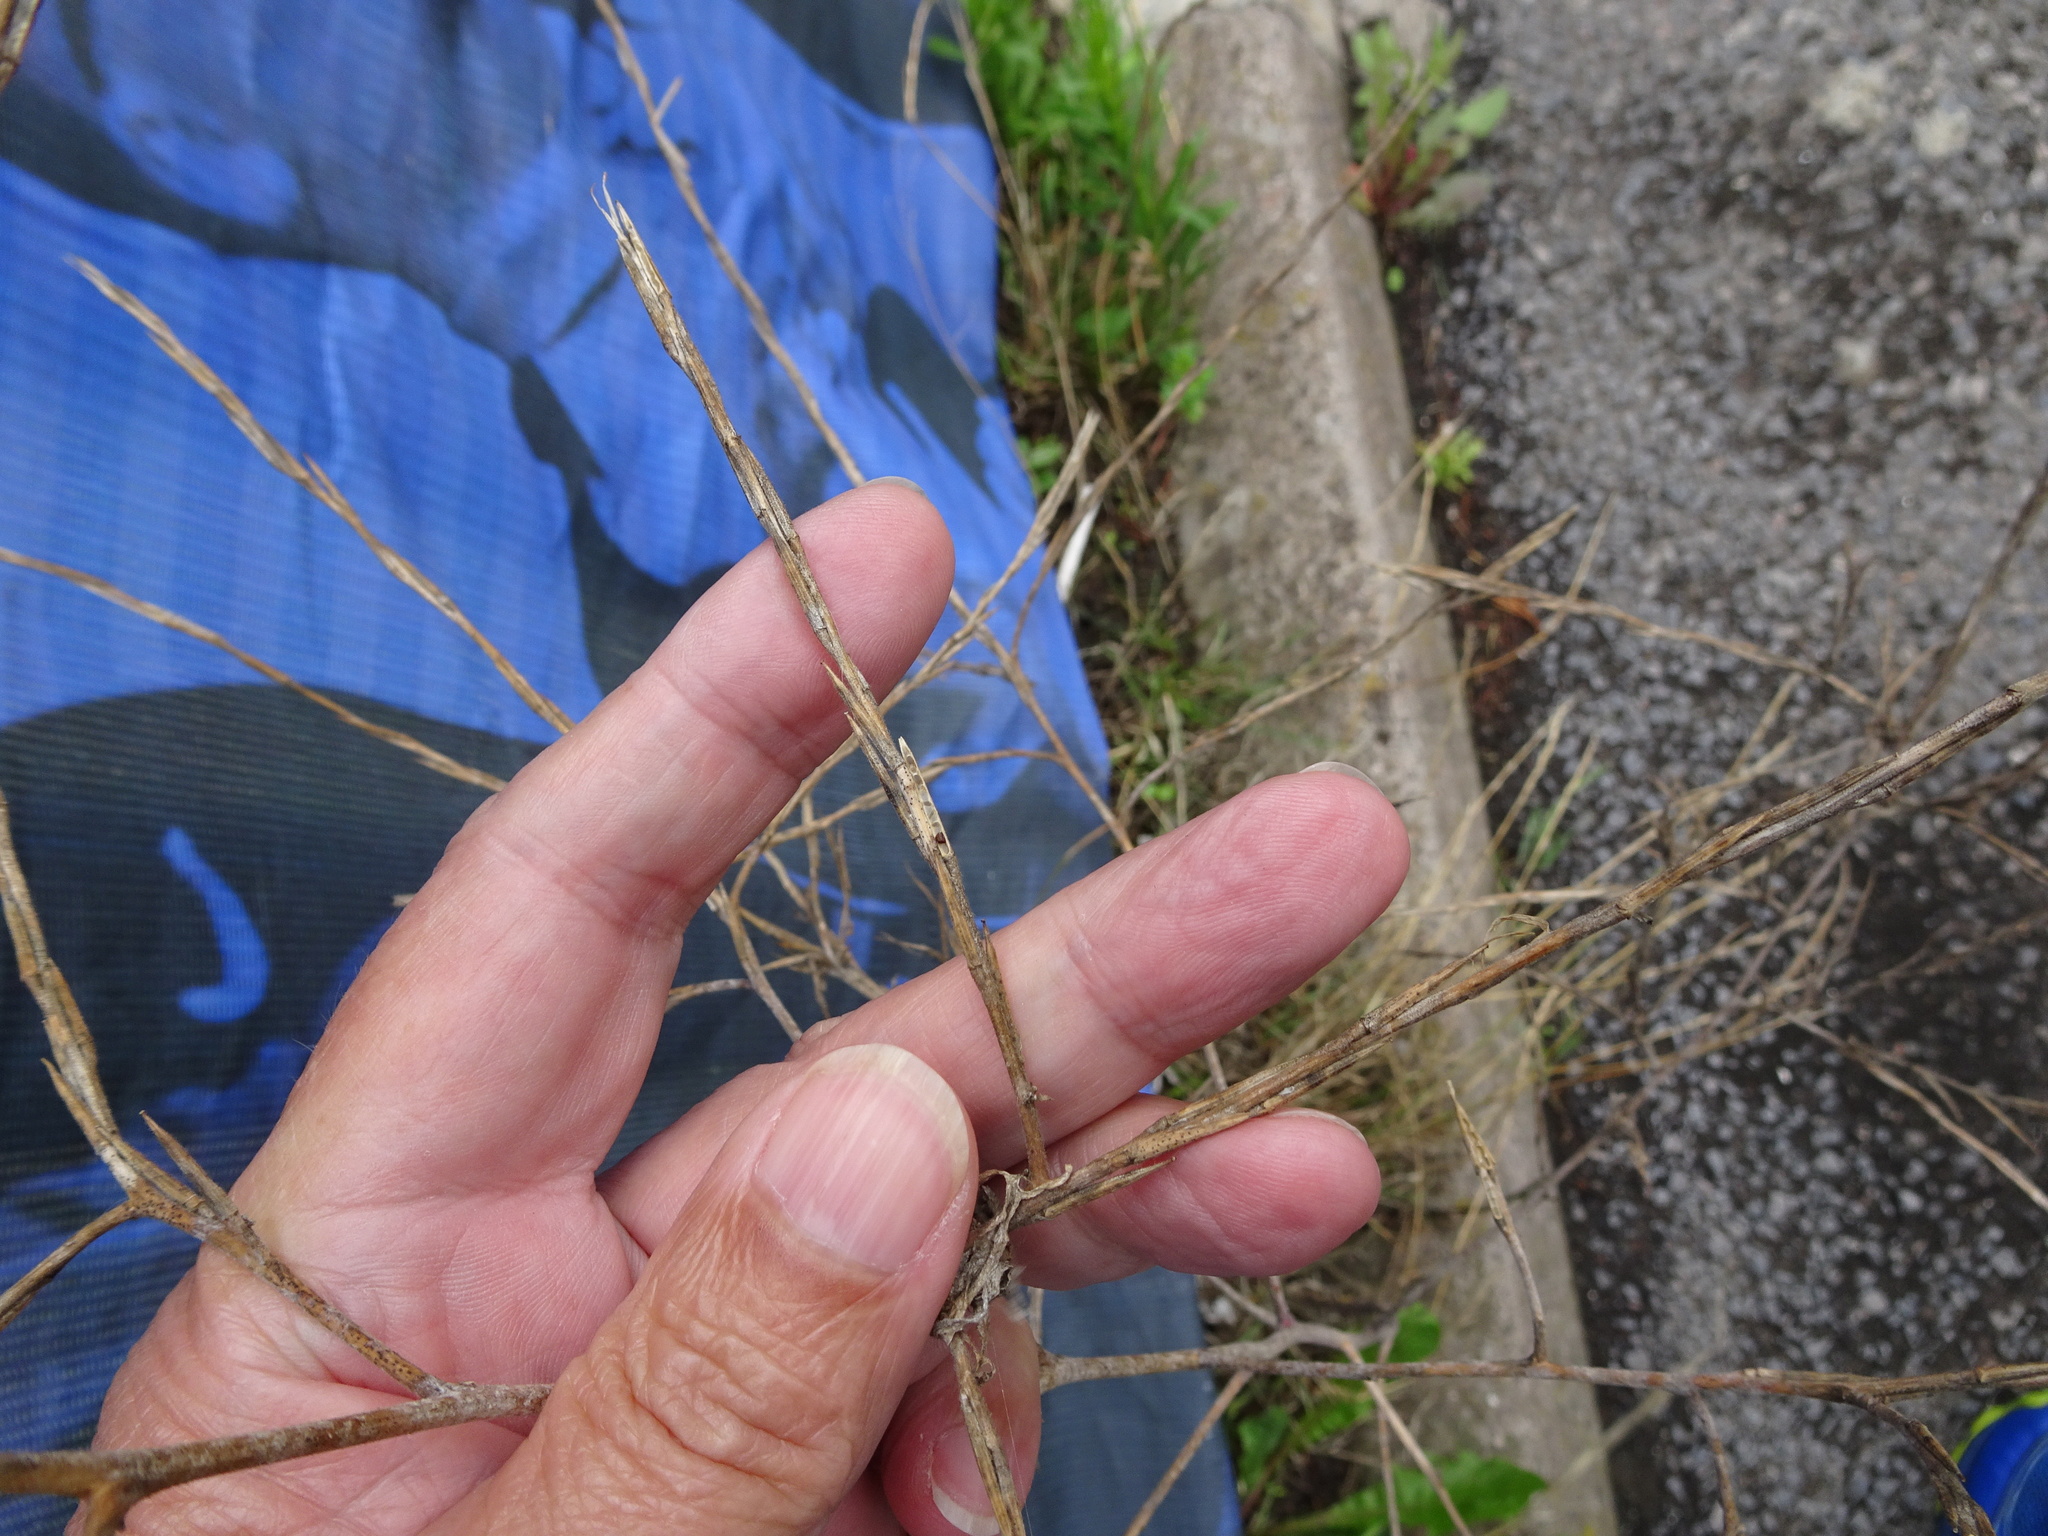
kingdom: Plantae
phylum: Tracheophyta
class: Magnoliopsida
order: Brassicales
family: Brassicaceae
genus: Sisymbrium
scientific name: Sisymbrium officinale
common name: Hedge mustard
